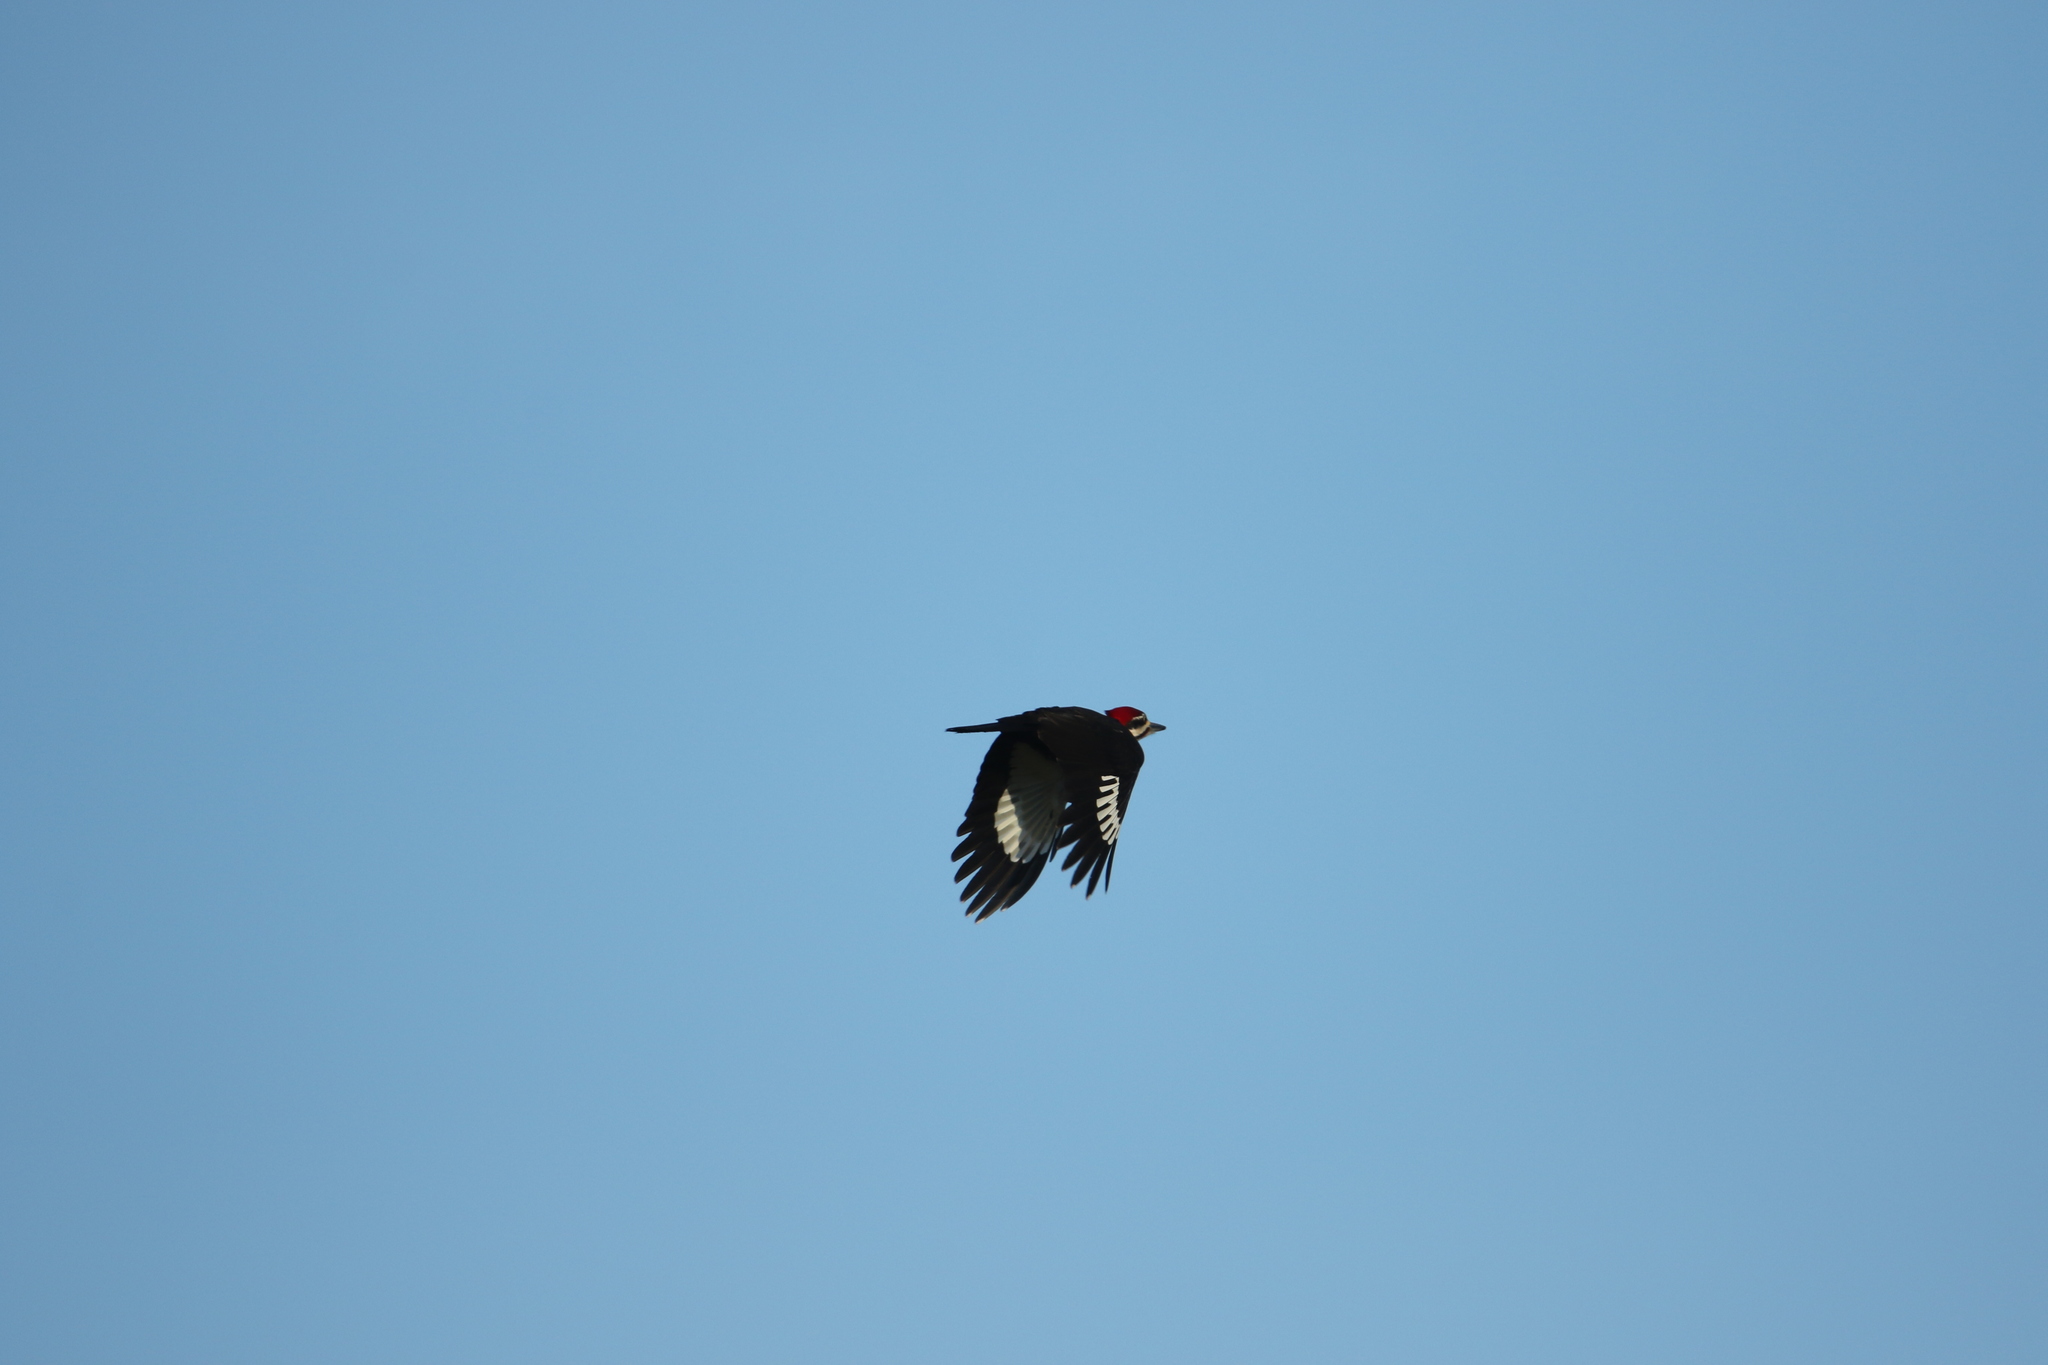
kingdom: Animalia
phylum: Chordata
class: Aves
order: Piciformes
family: Picidae
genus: Dryocopus
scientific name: Dryocopus pileatus
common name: Pileated woodpecker
